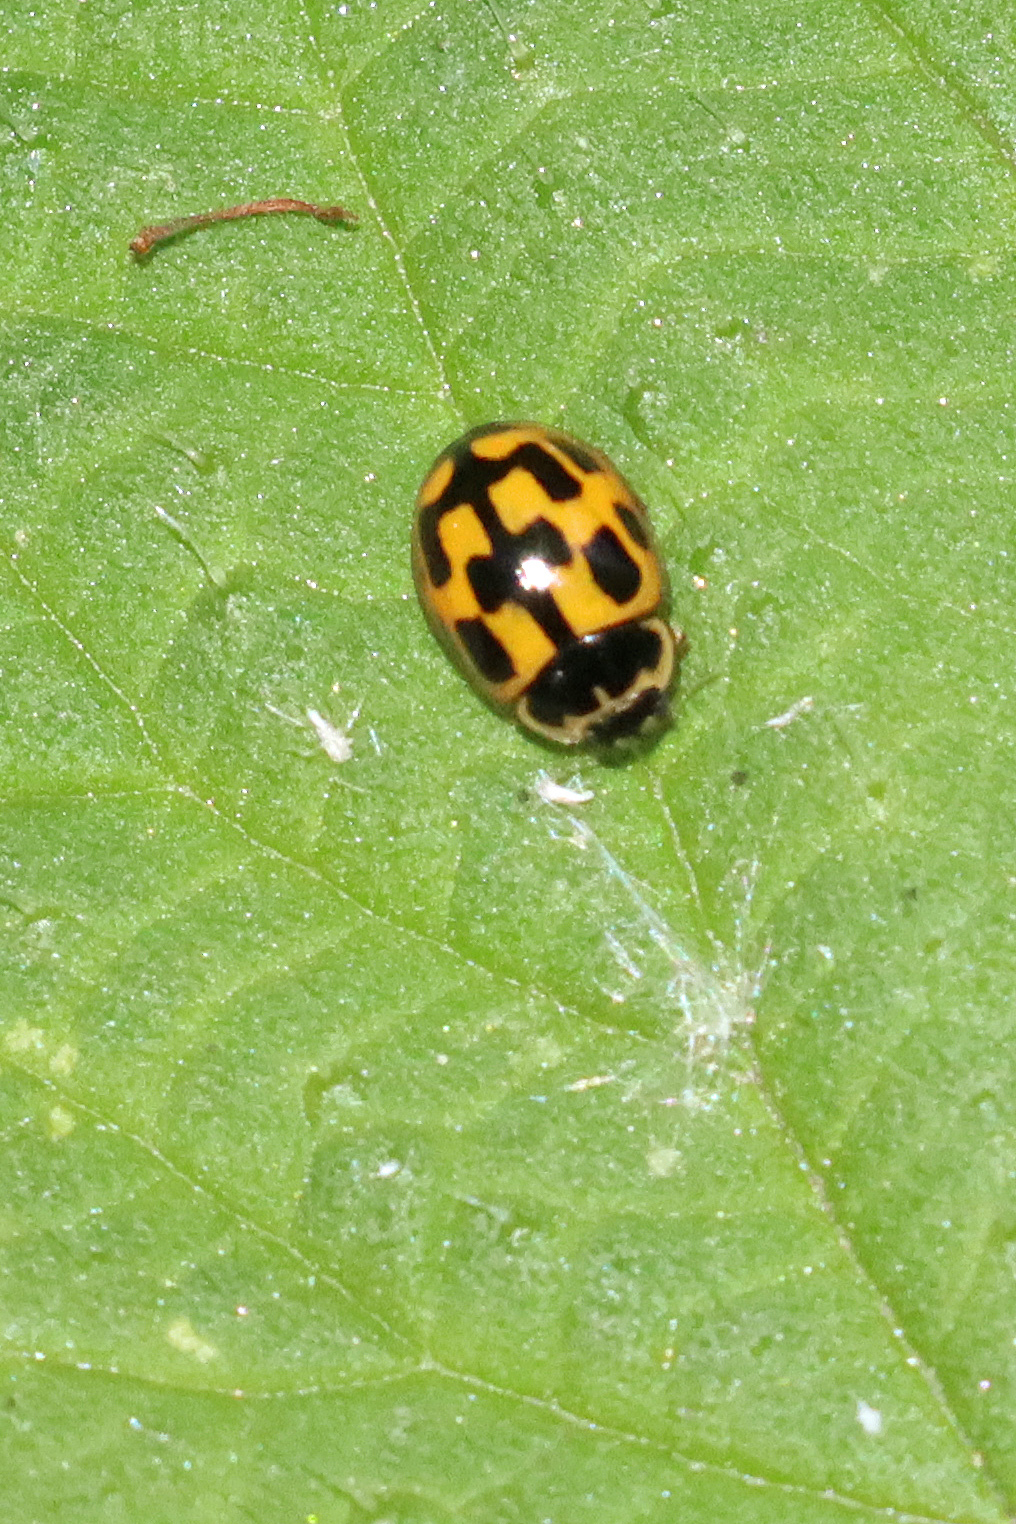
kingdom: Animalia
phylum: Arthropoda
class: Insecta
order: Coleoptera
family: Coccinellidae
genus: Propylaea
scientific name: Propylaea quatuordecimpunctata
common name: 14-spotted ladybird beetle
